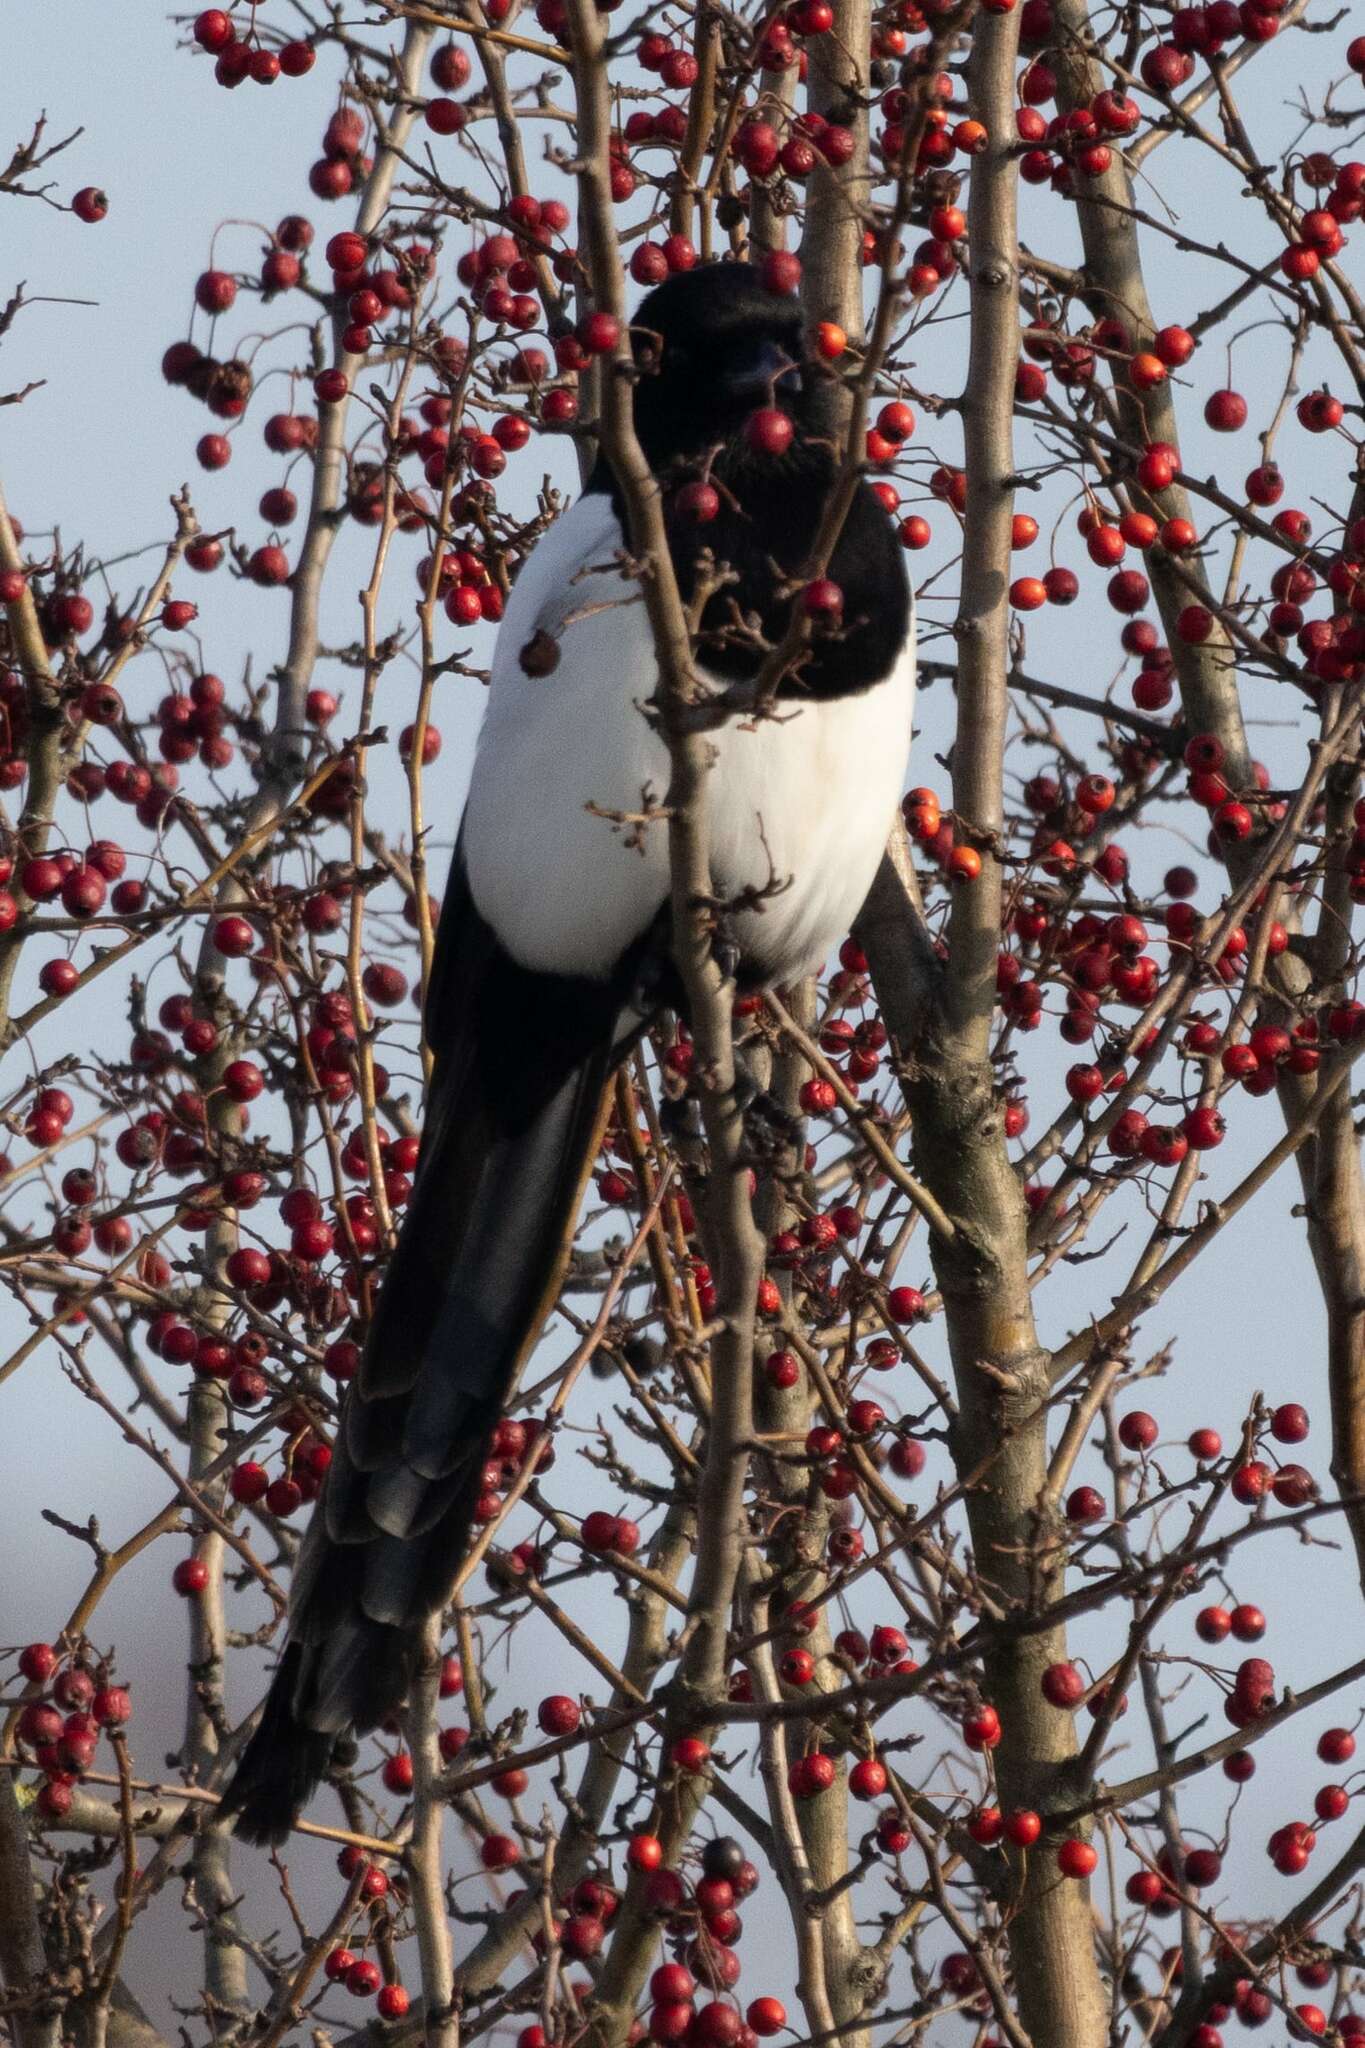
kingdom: Animalia
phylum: Chordata
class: Aves
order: Passeriformes
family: Corvidae
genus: Pica
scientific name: Pica pica
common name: Eurasian magpie
